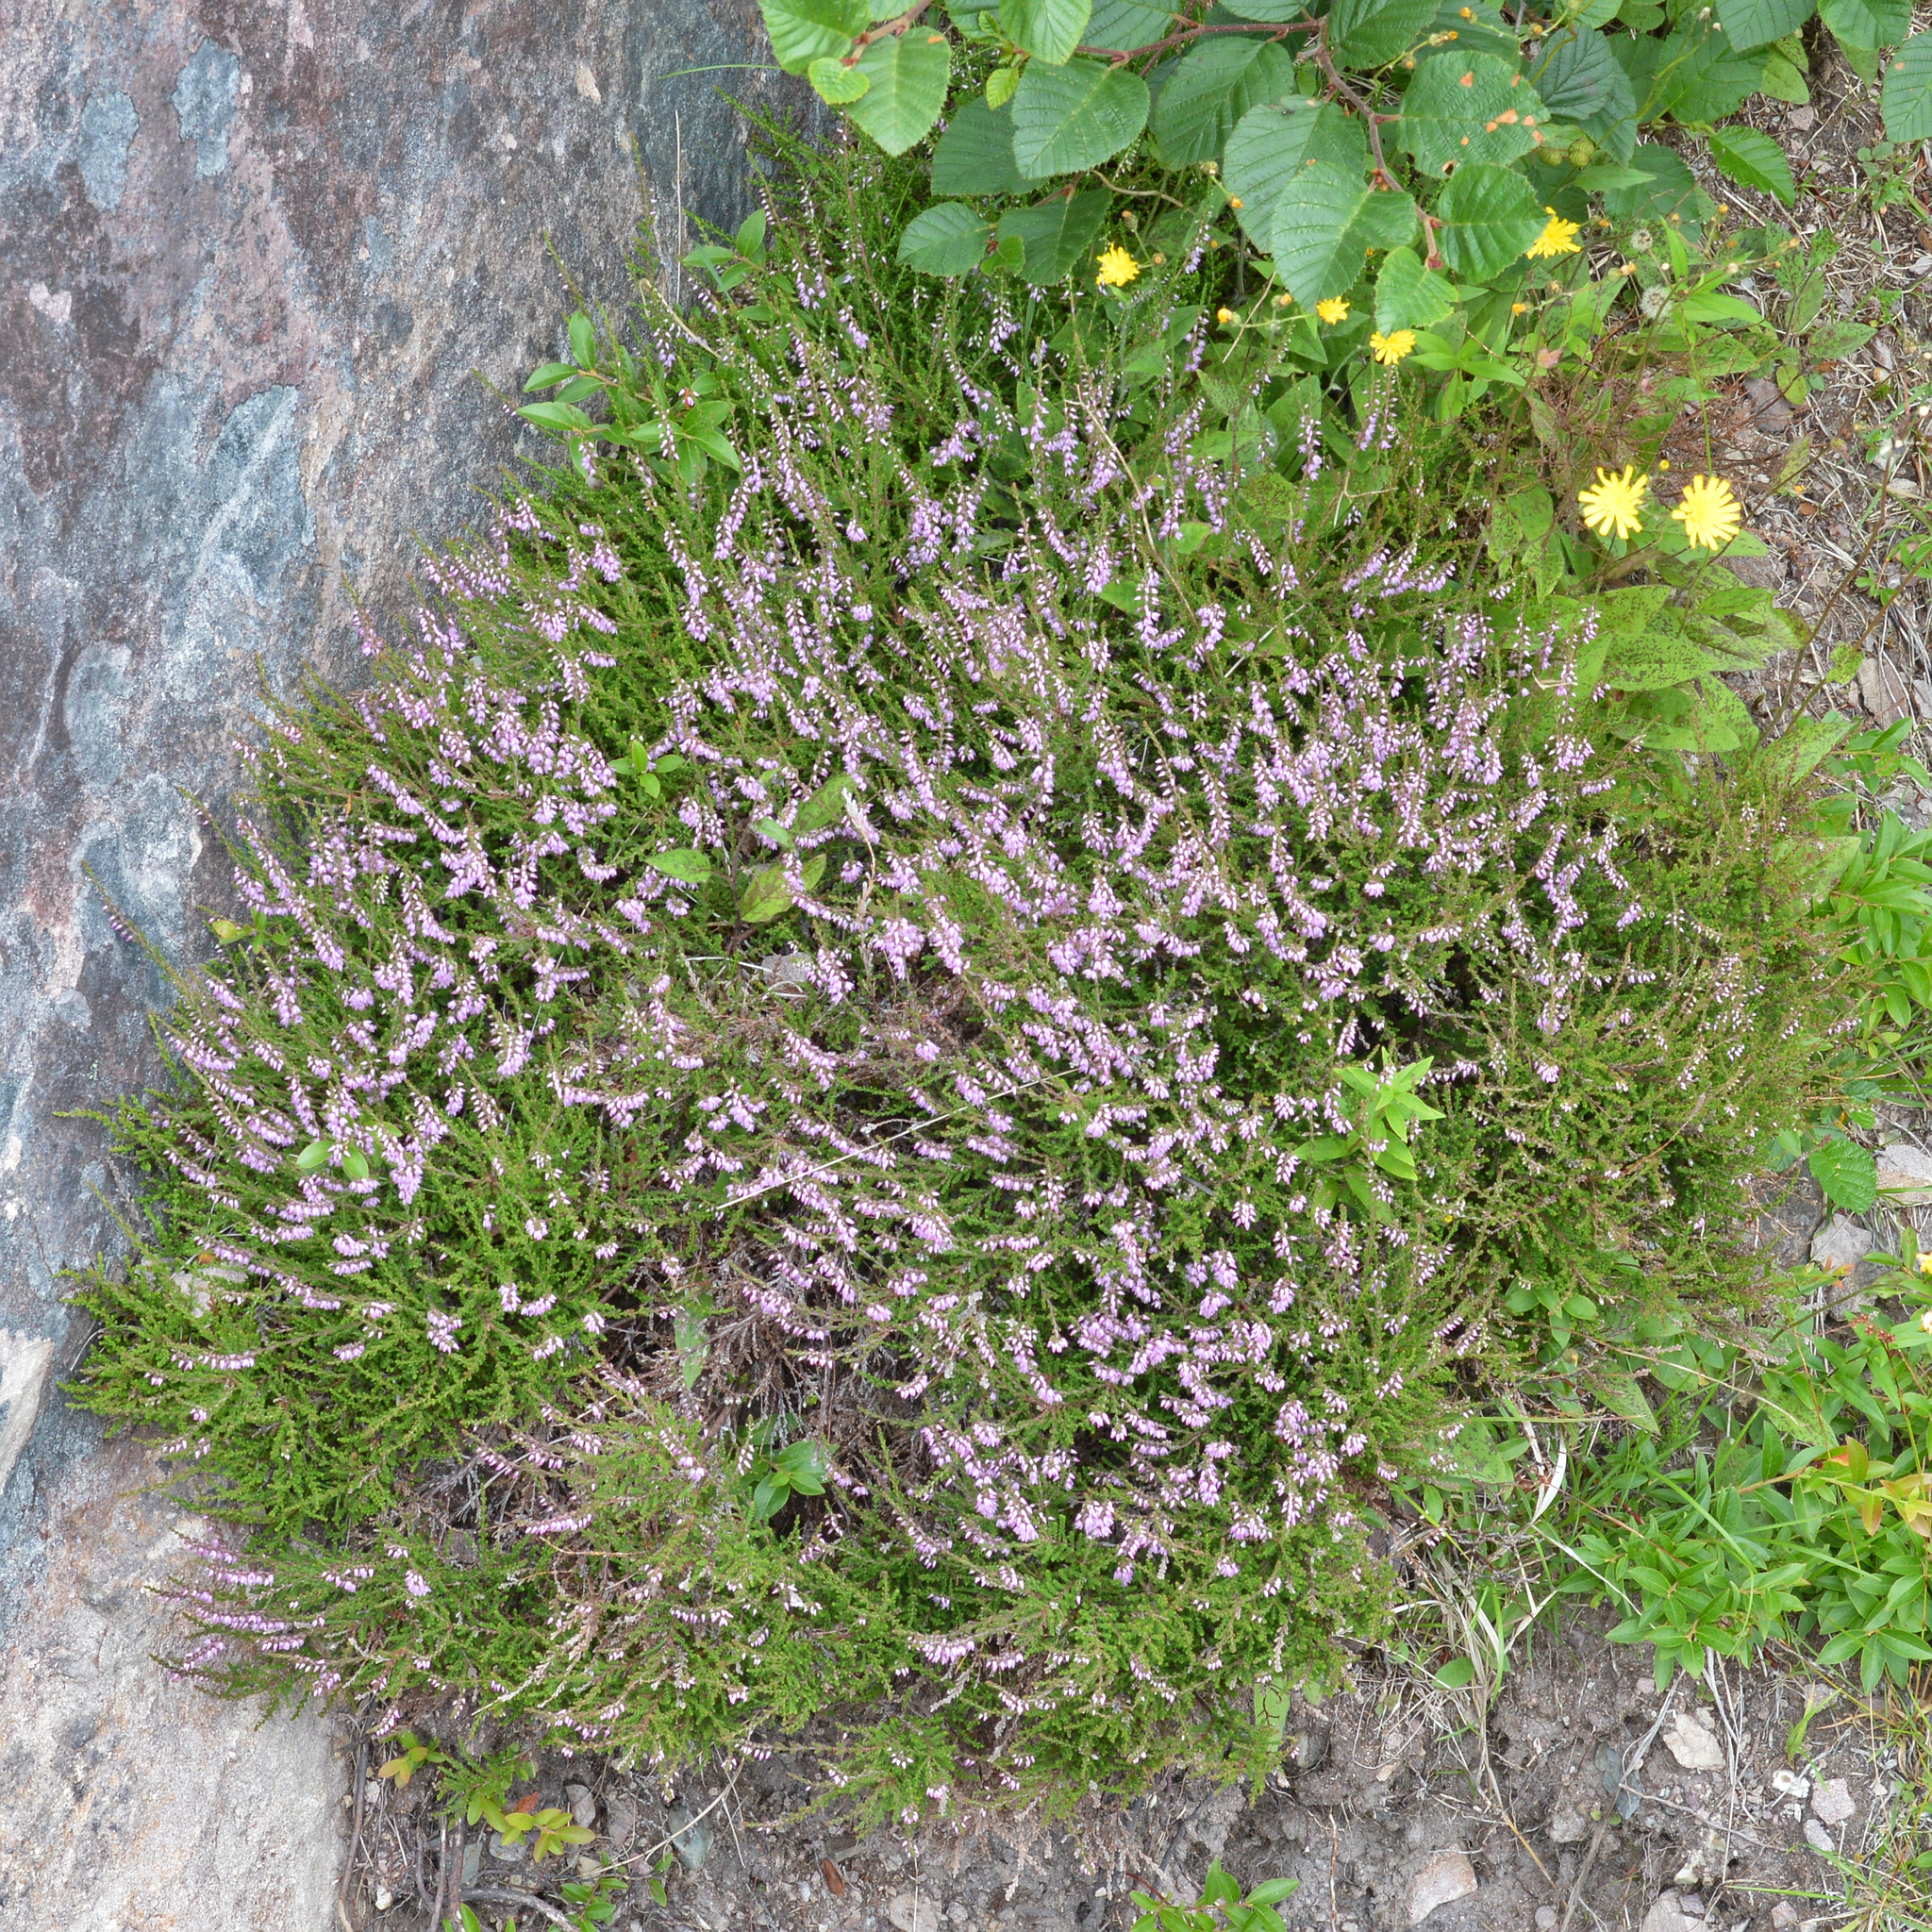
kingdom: Plantae
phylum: Tracheophyta
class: Magnoliopsida
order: Ericales
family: Ericaceae
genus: Calluna
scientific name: Calluna vulgaris
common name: Heather
